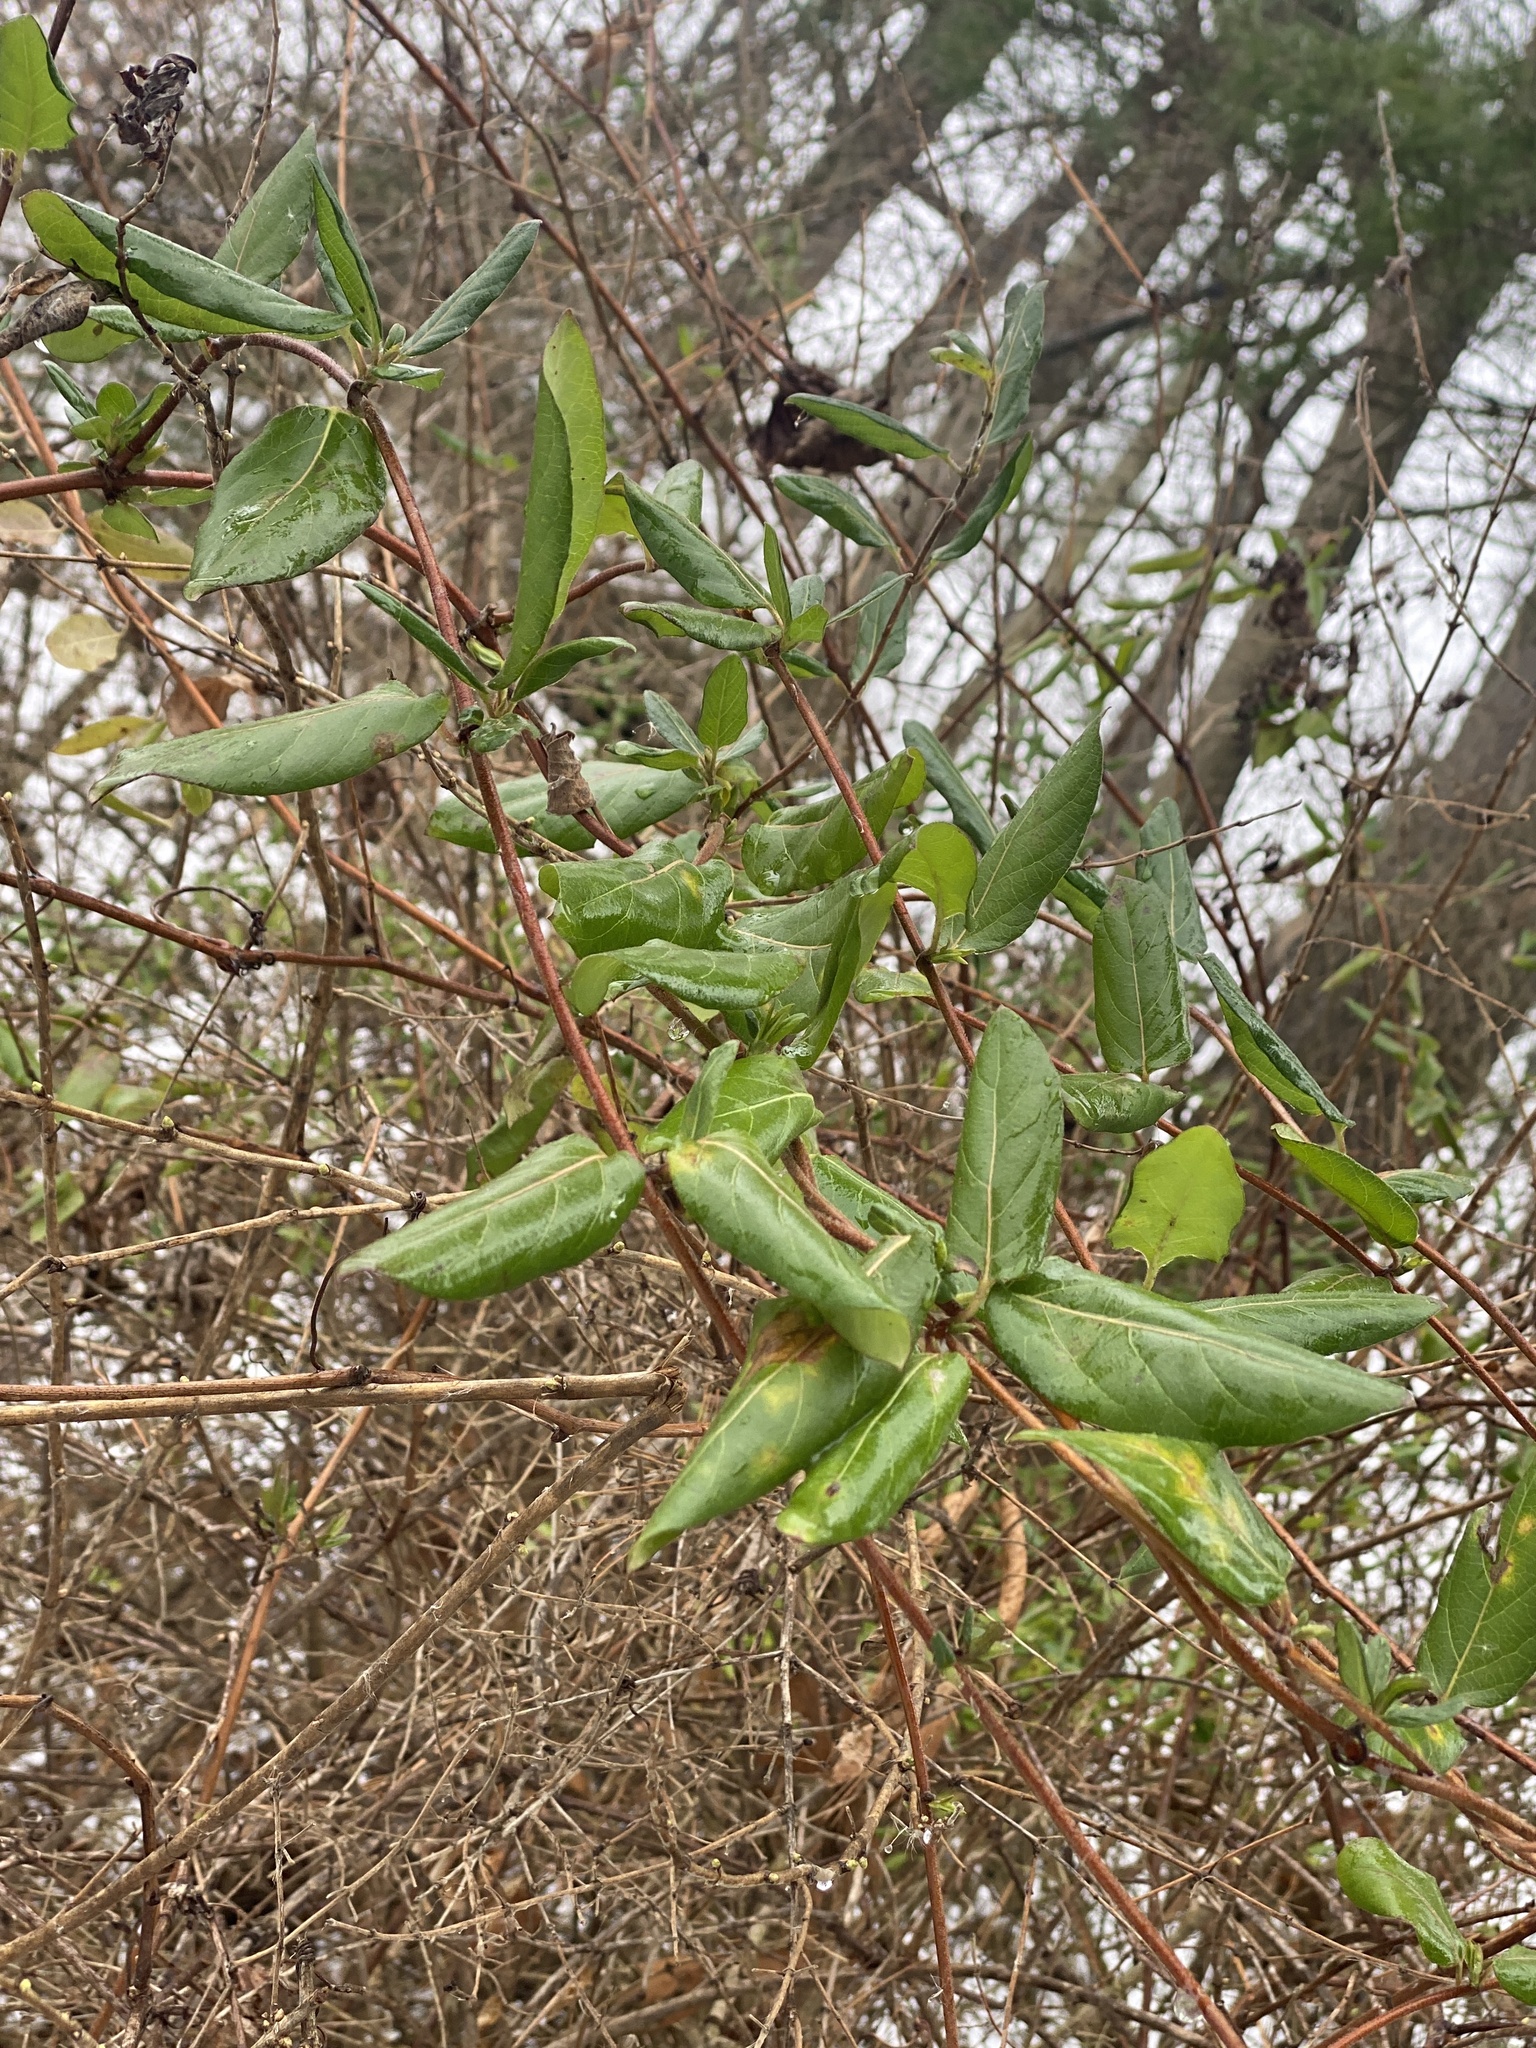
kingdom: Plantae
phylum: Tracheophyta
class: Magnoliopsida
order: Dipsacales
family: Caprifoliaceae
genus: Lonicera
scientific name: Lonicera japonica
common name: Japanese honeysuckle
